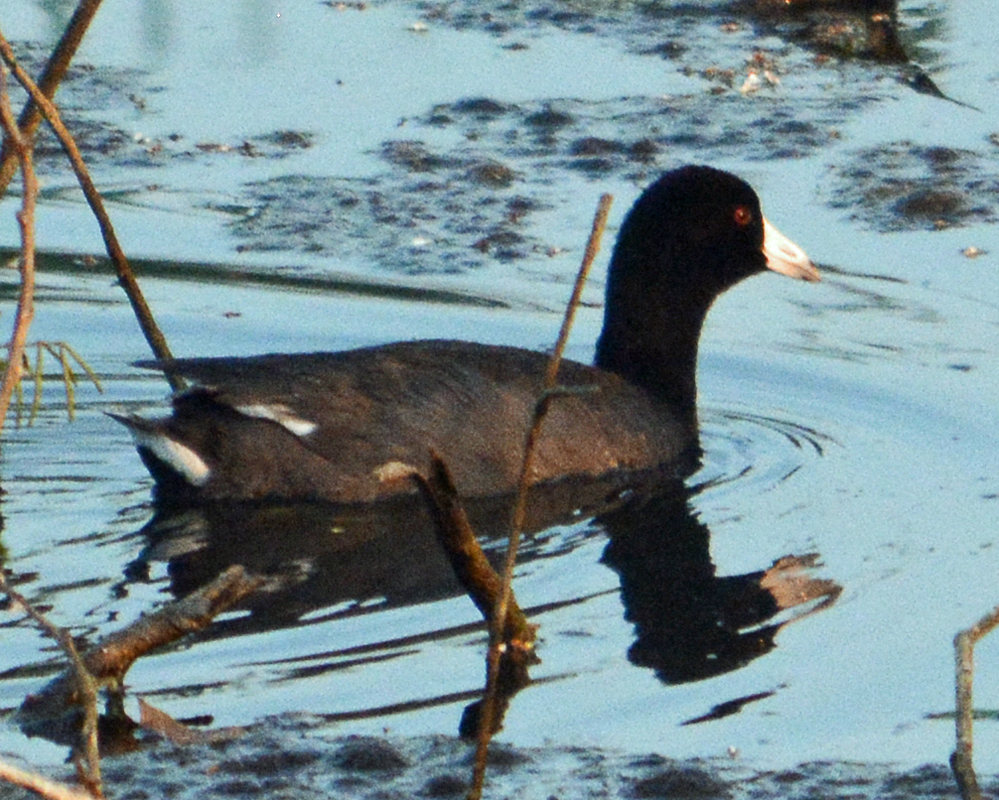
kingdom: Animalia
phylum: Chordata
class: Aves
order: Gruiformes
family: Rallidae
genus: Fulica
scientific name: Fulica americana
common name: American coot
